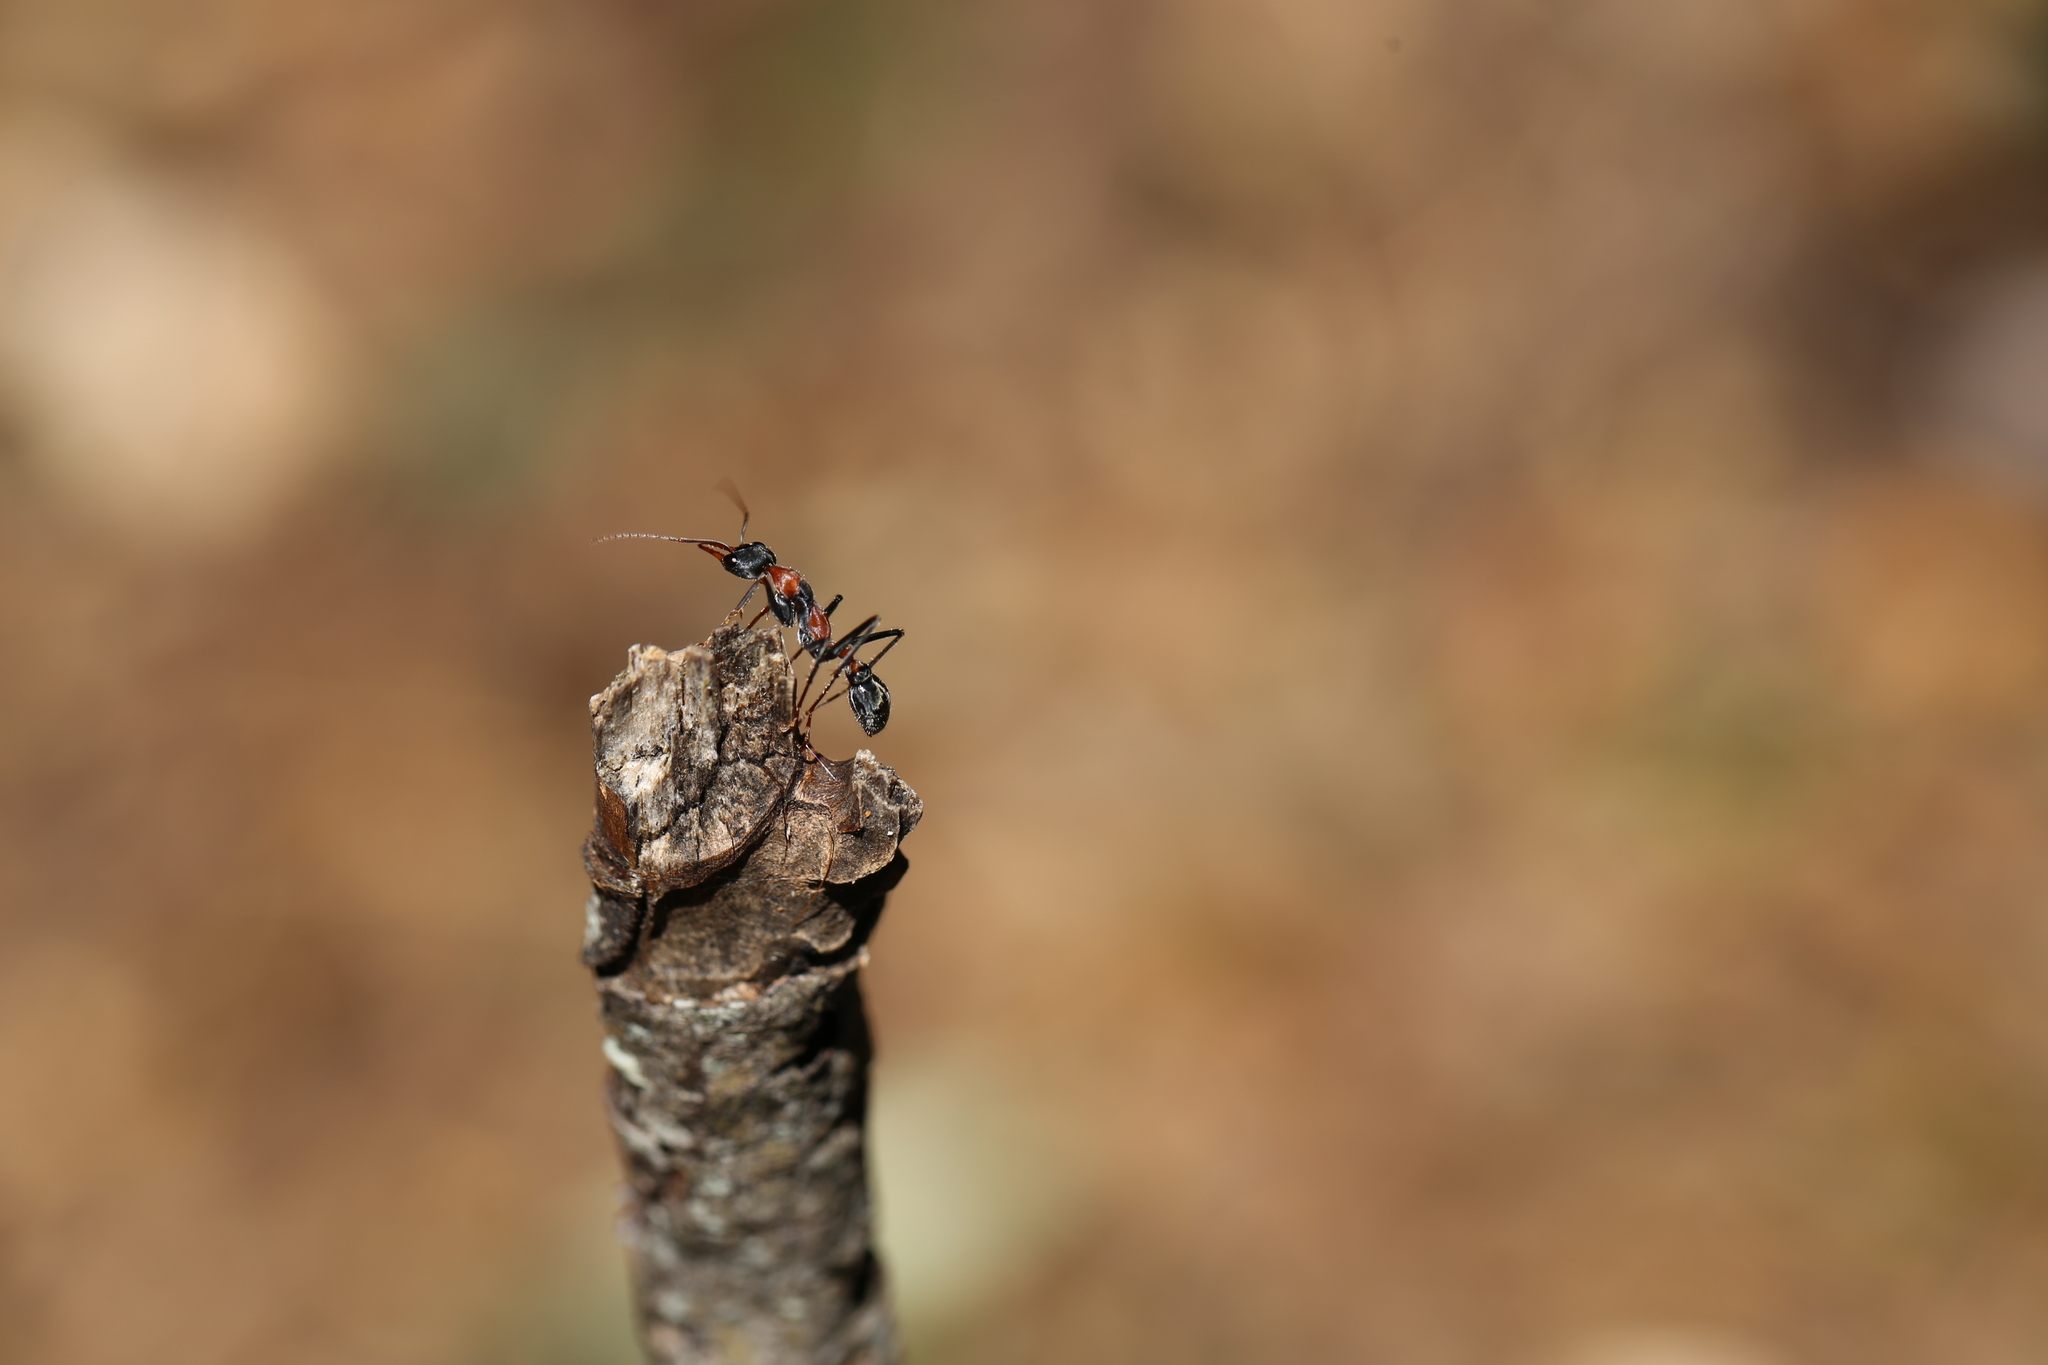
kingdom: Animalia
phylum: Arthropoda
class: Insecta
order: Hymenoptera
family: Formicidae
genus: Myrmecia
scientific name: Myrmecia nigrocincta
